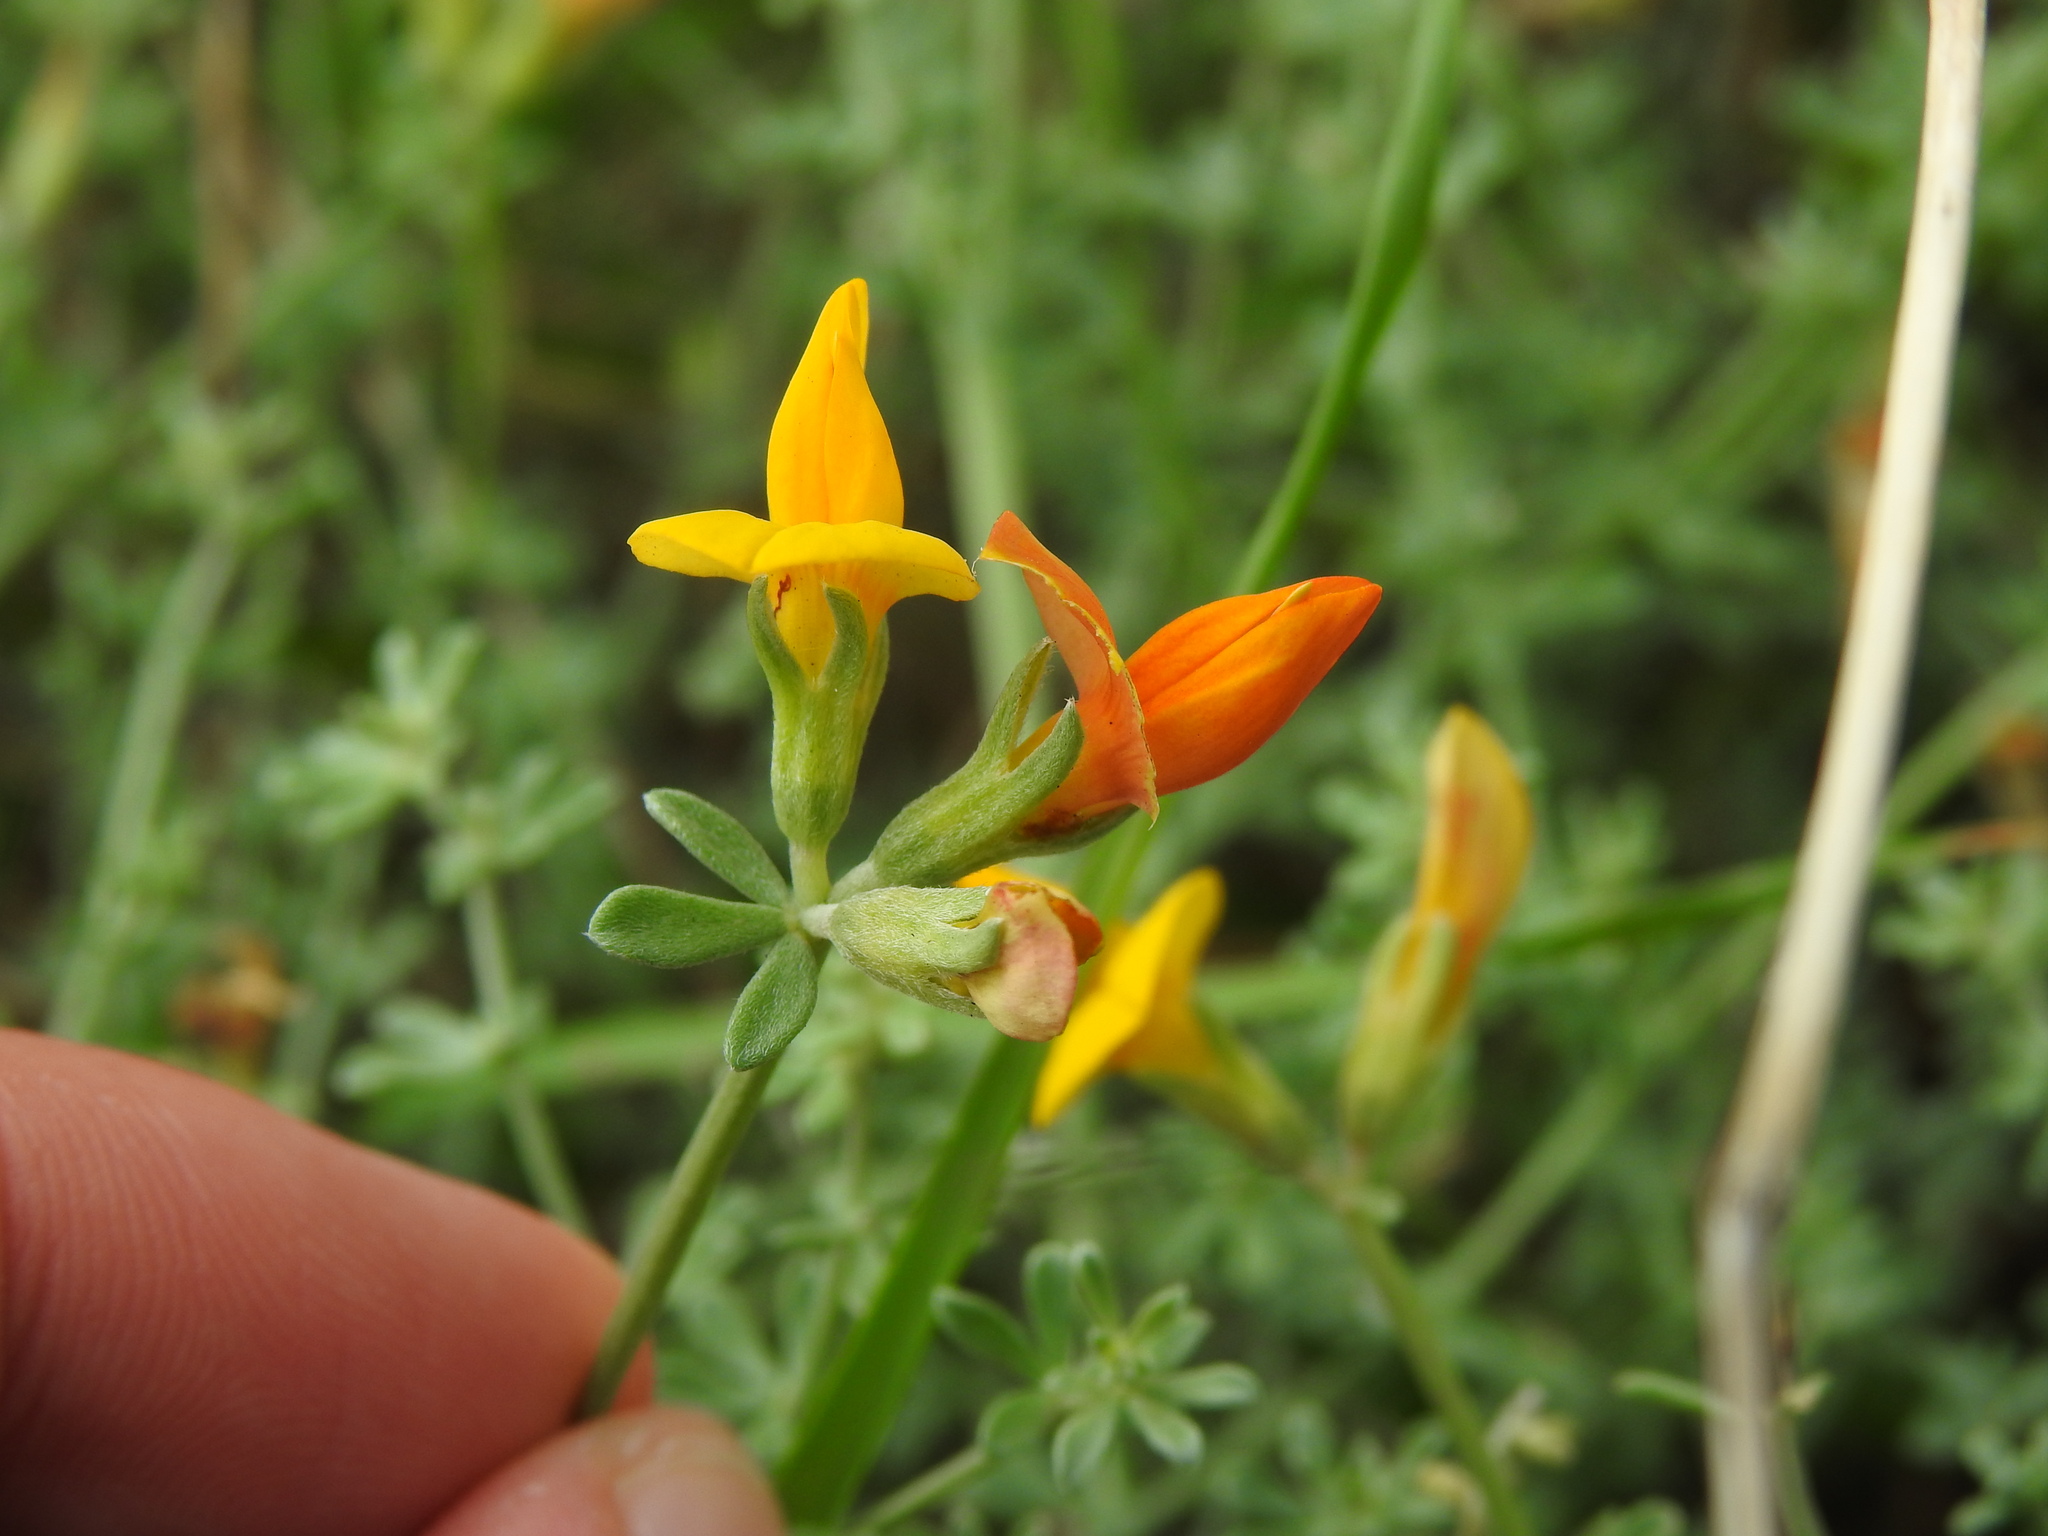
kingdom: Plantae
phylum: Tracheophyta
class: Magnoliopsida
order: Fabales
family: Fabaceae
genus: Lotus
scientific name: Lotus glaucus
